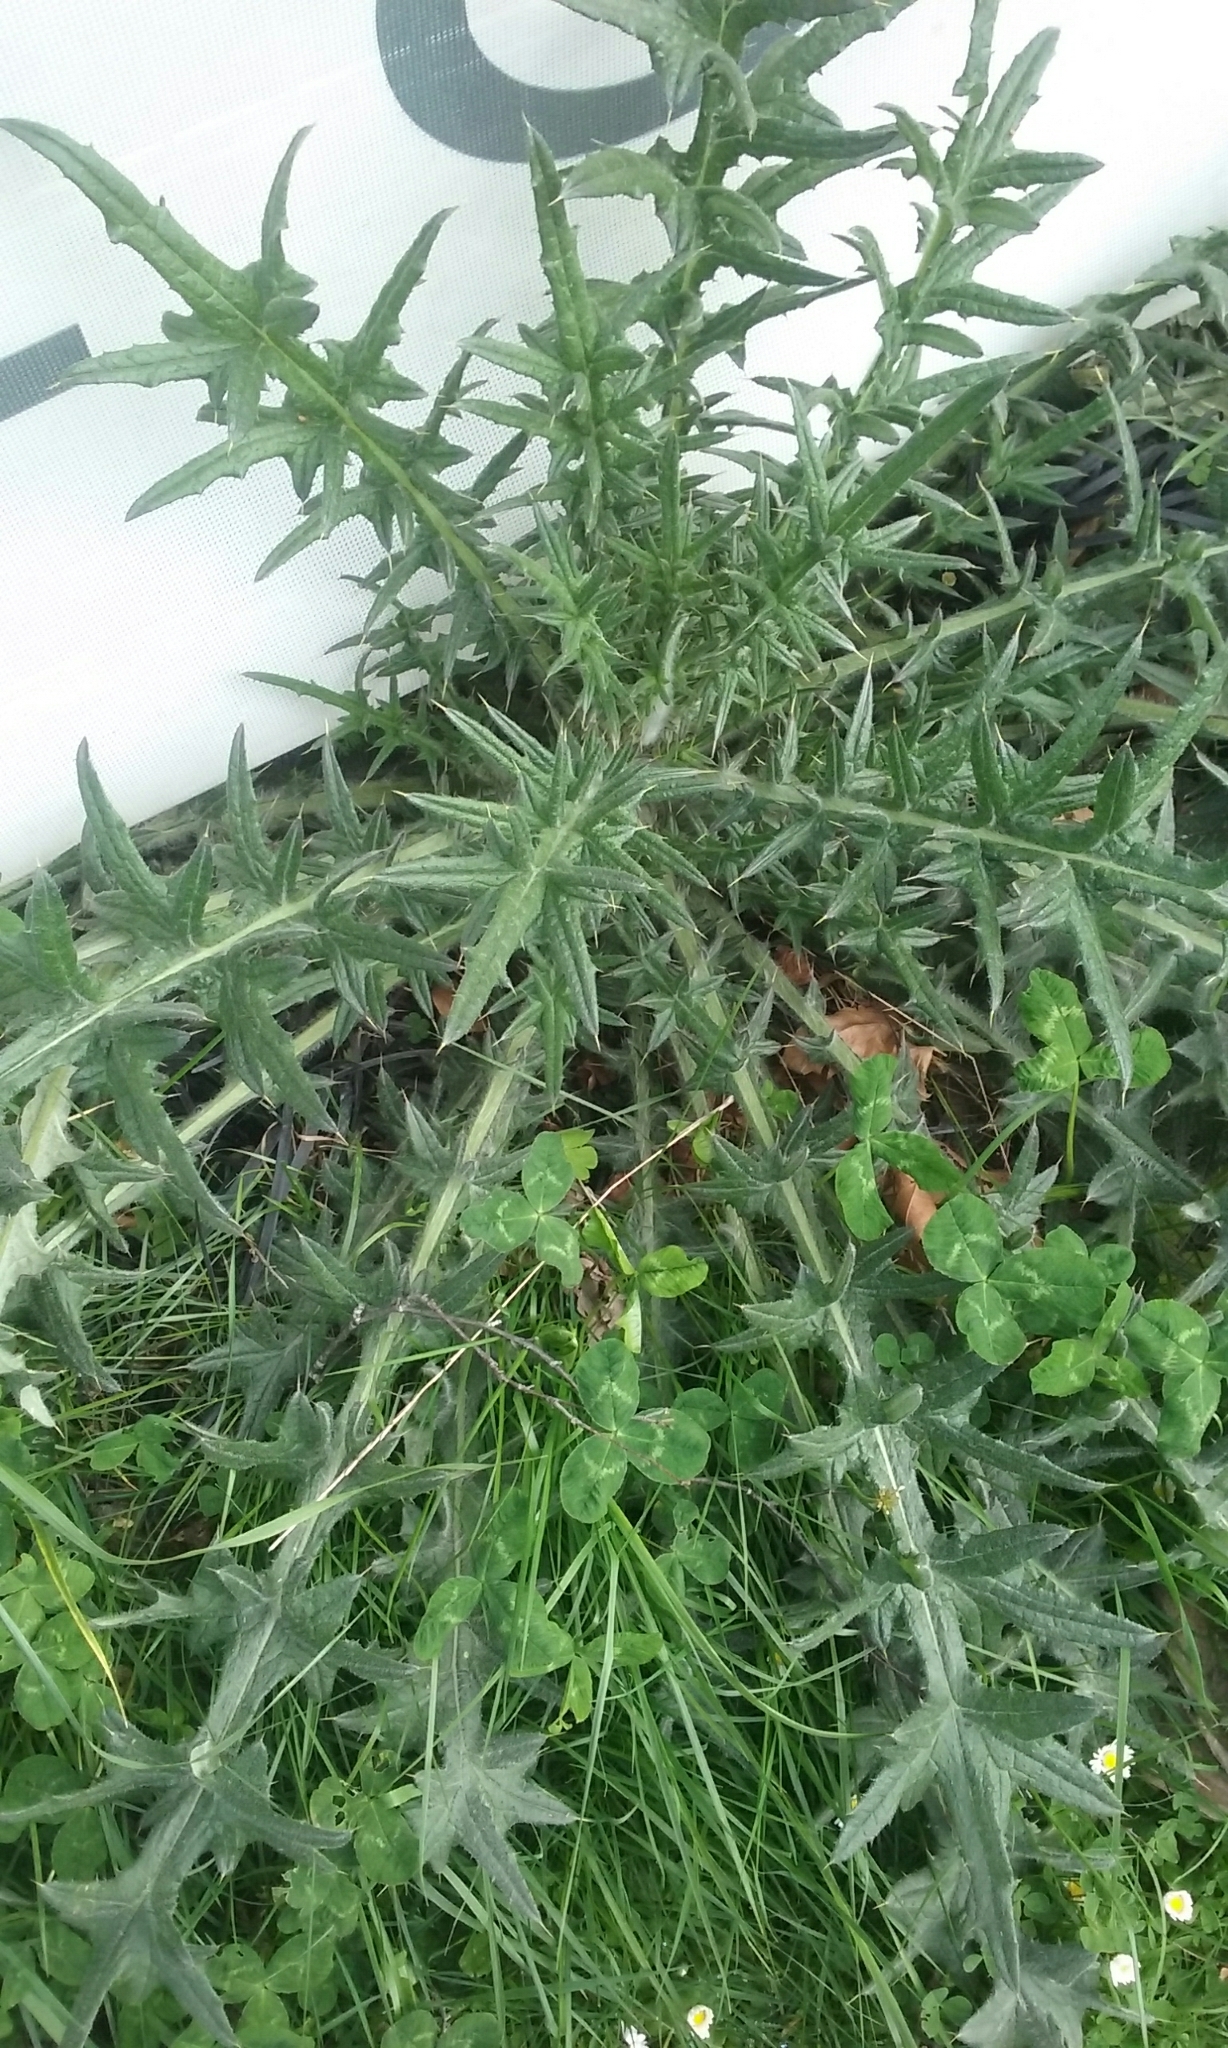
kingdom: Plantae
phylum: Tracheophyta
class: Magnoliopsida
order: Asterales
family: Asteraceae
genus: Cirsium
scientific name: Cirsium vulgare
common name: Bull thistle
